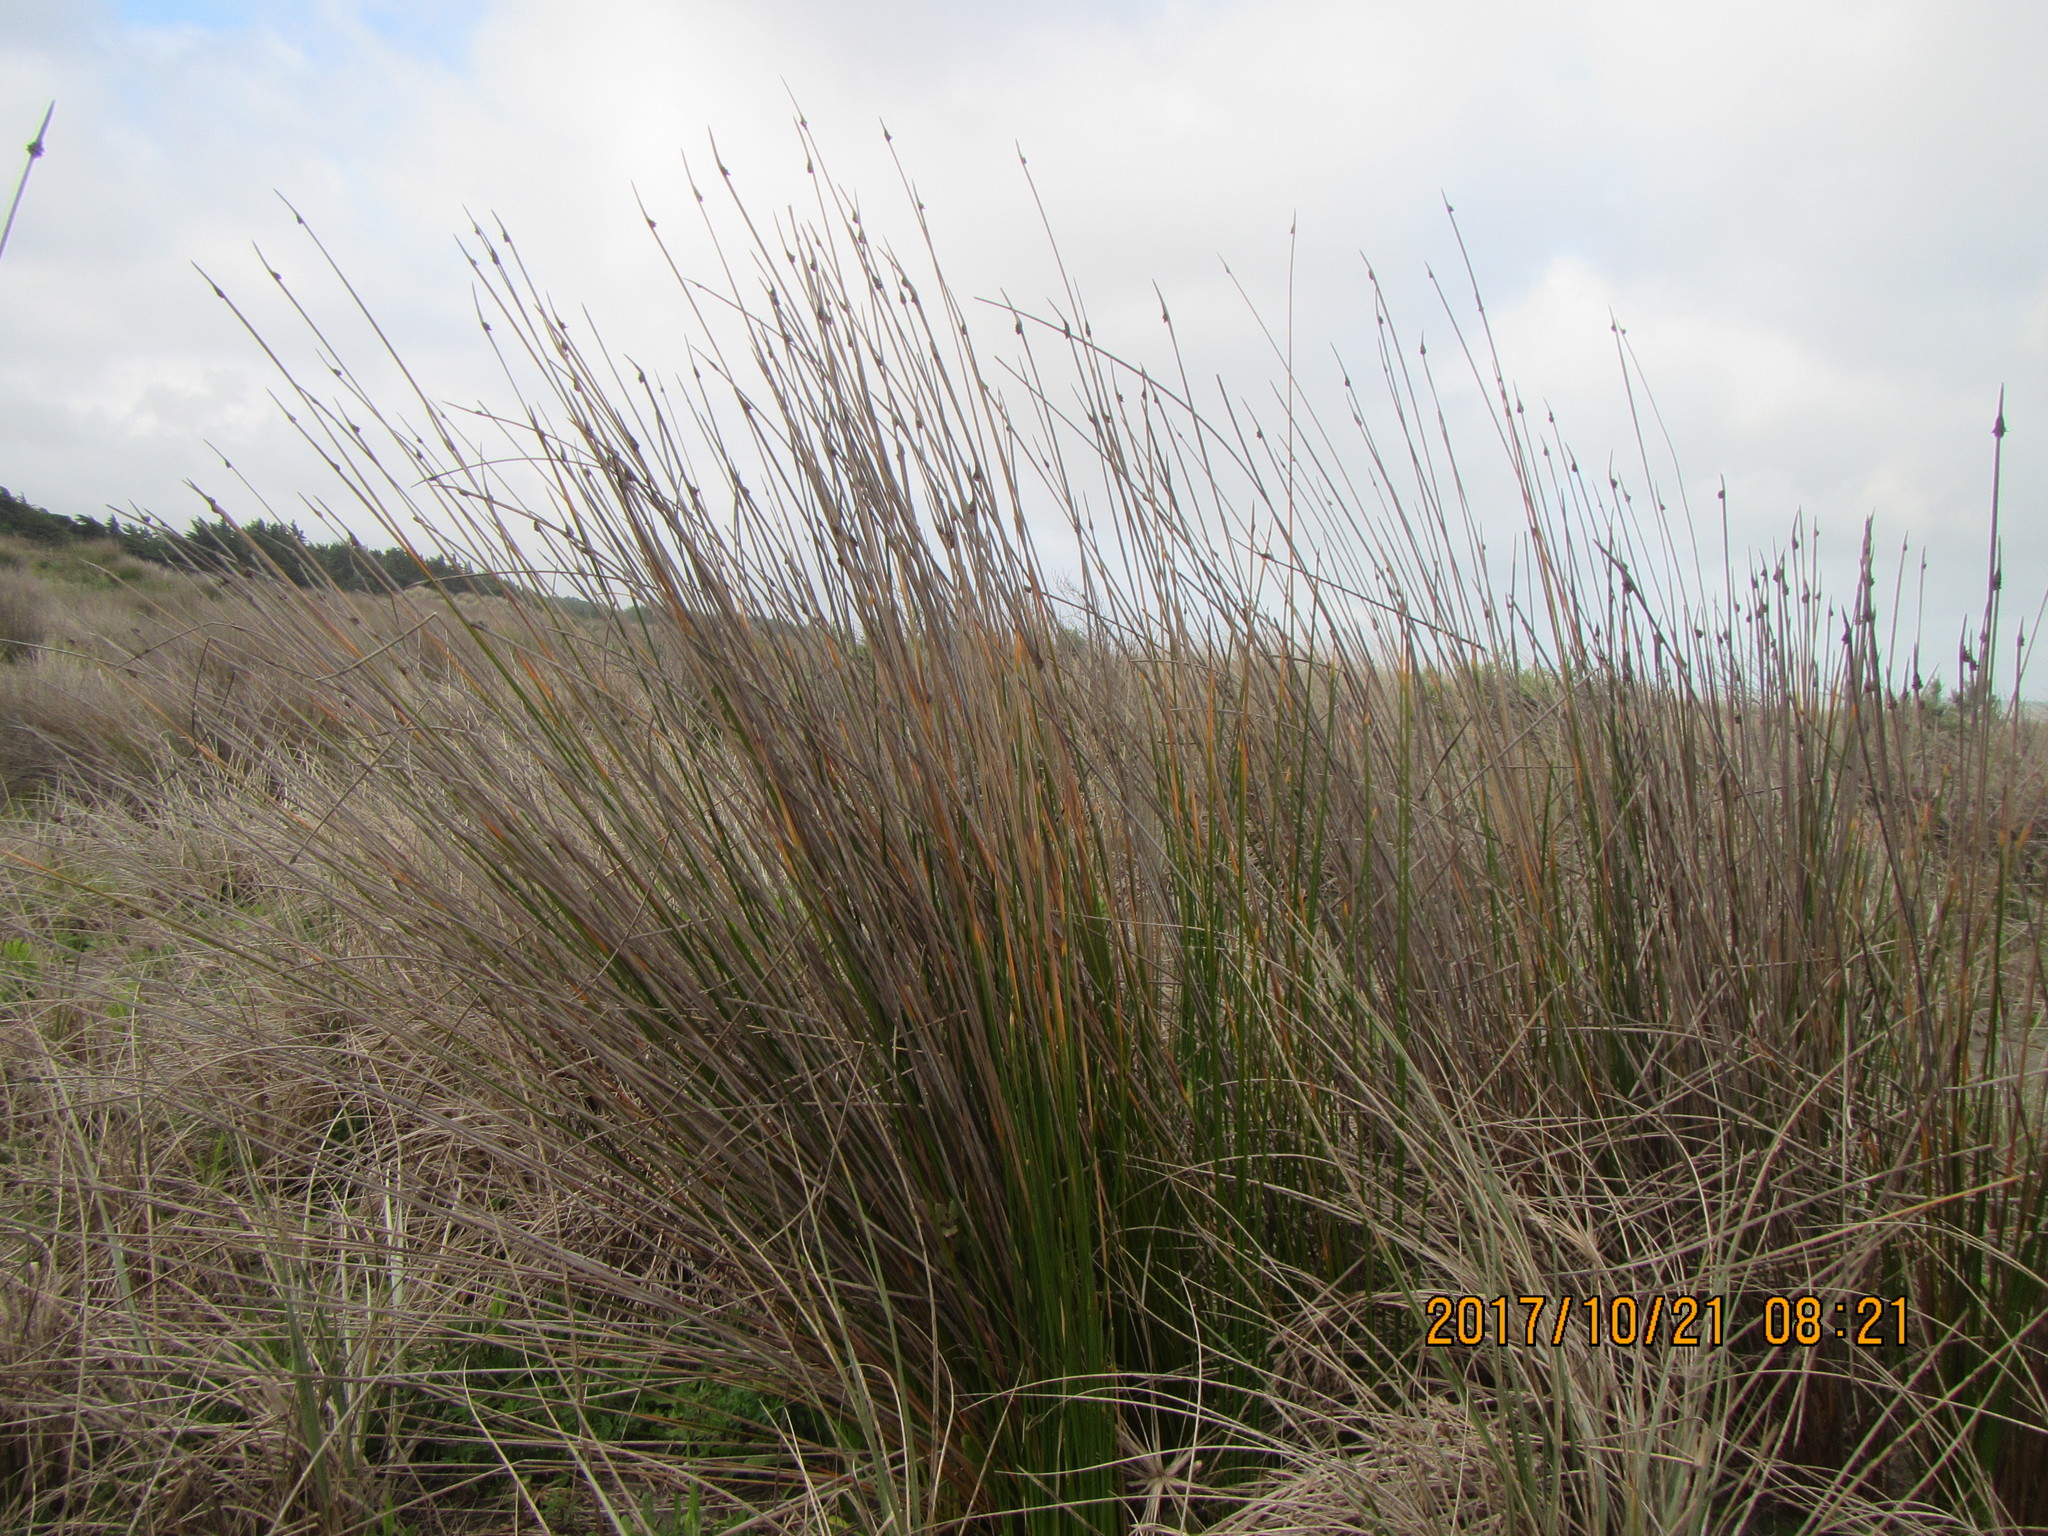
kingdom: Plantae
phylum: Tracheophyta
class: Liliopsida
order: Poales
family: Cyperaceae
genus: Ficinia
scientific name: Ficinia nodosa
